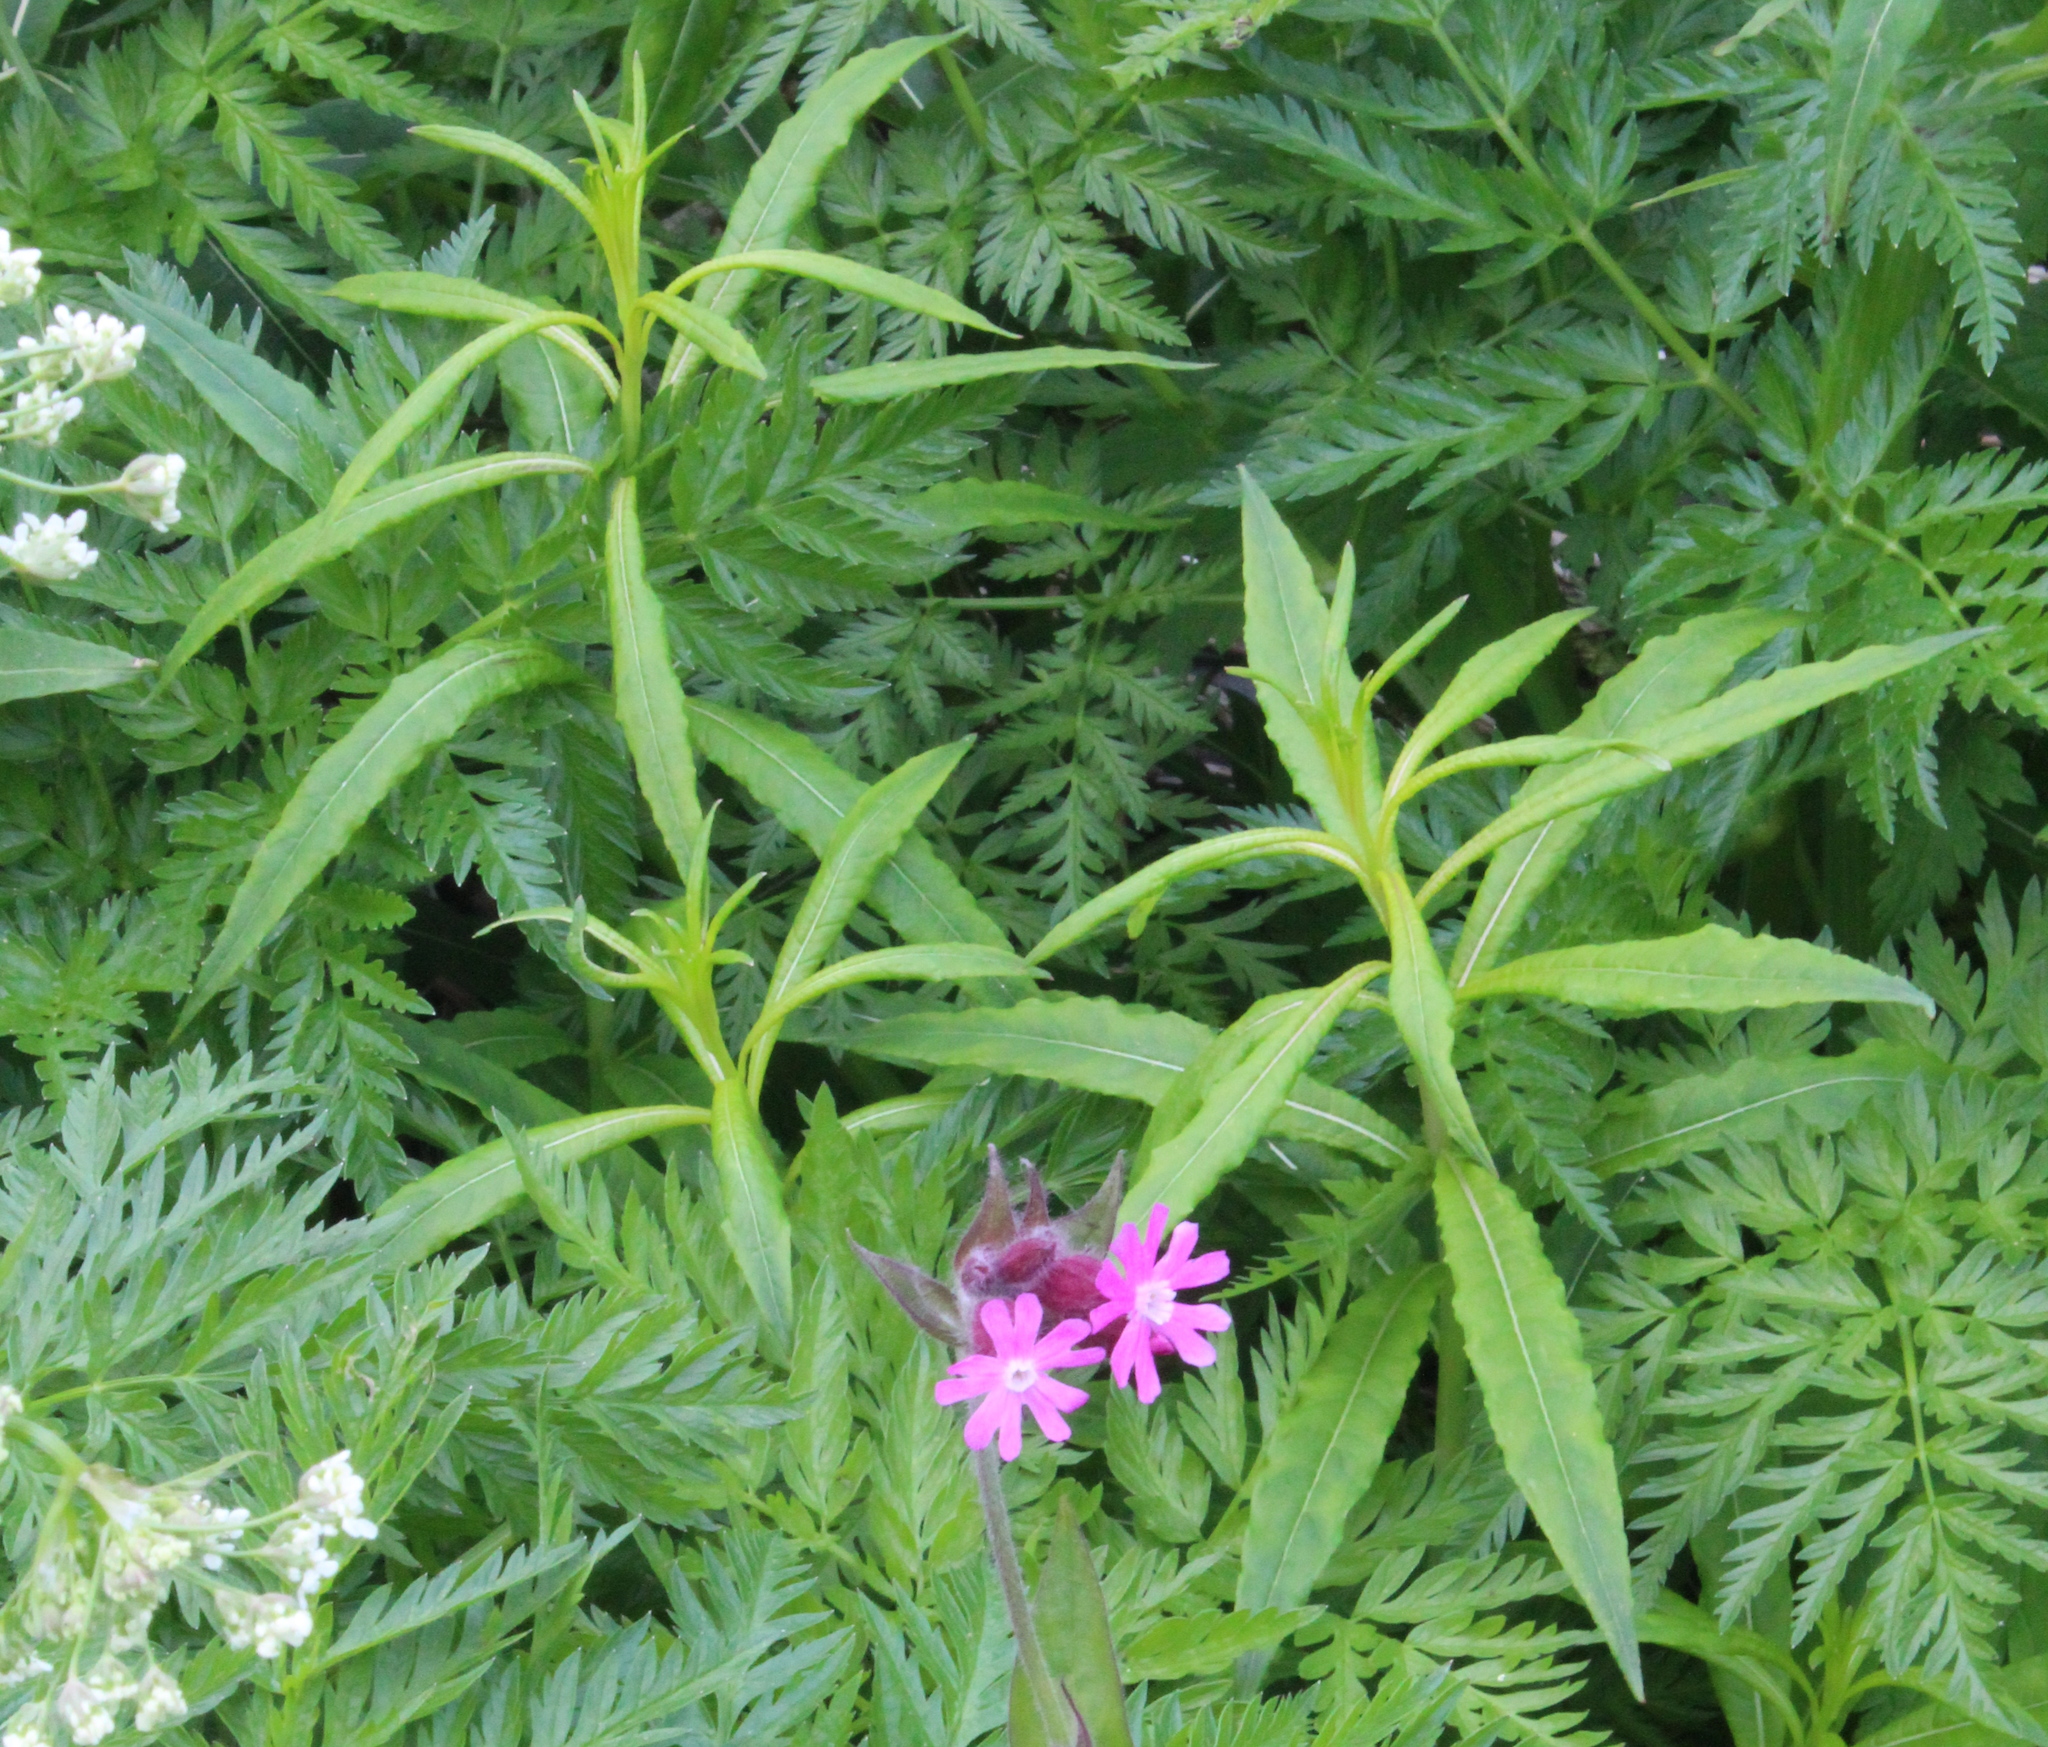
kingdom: Plantae
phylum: Tracheophyta
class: Magnoliopsida
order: Myrtales
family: Onagraceae
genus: Chamaenerion
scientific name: Chamaenerion angustifolium
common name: Fireweed
